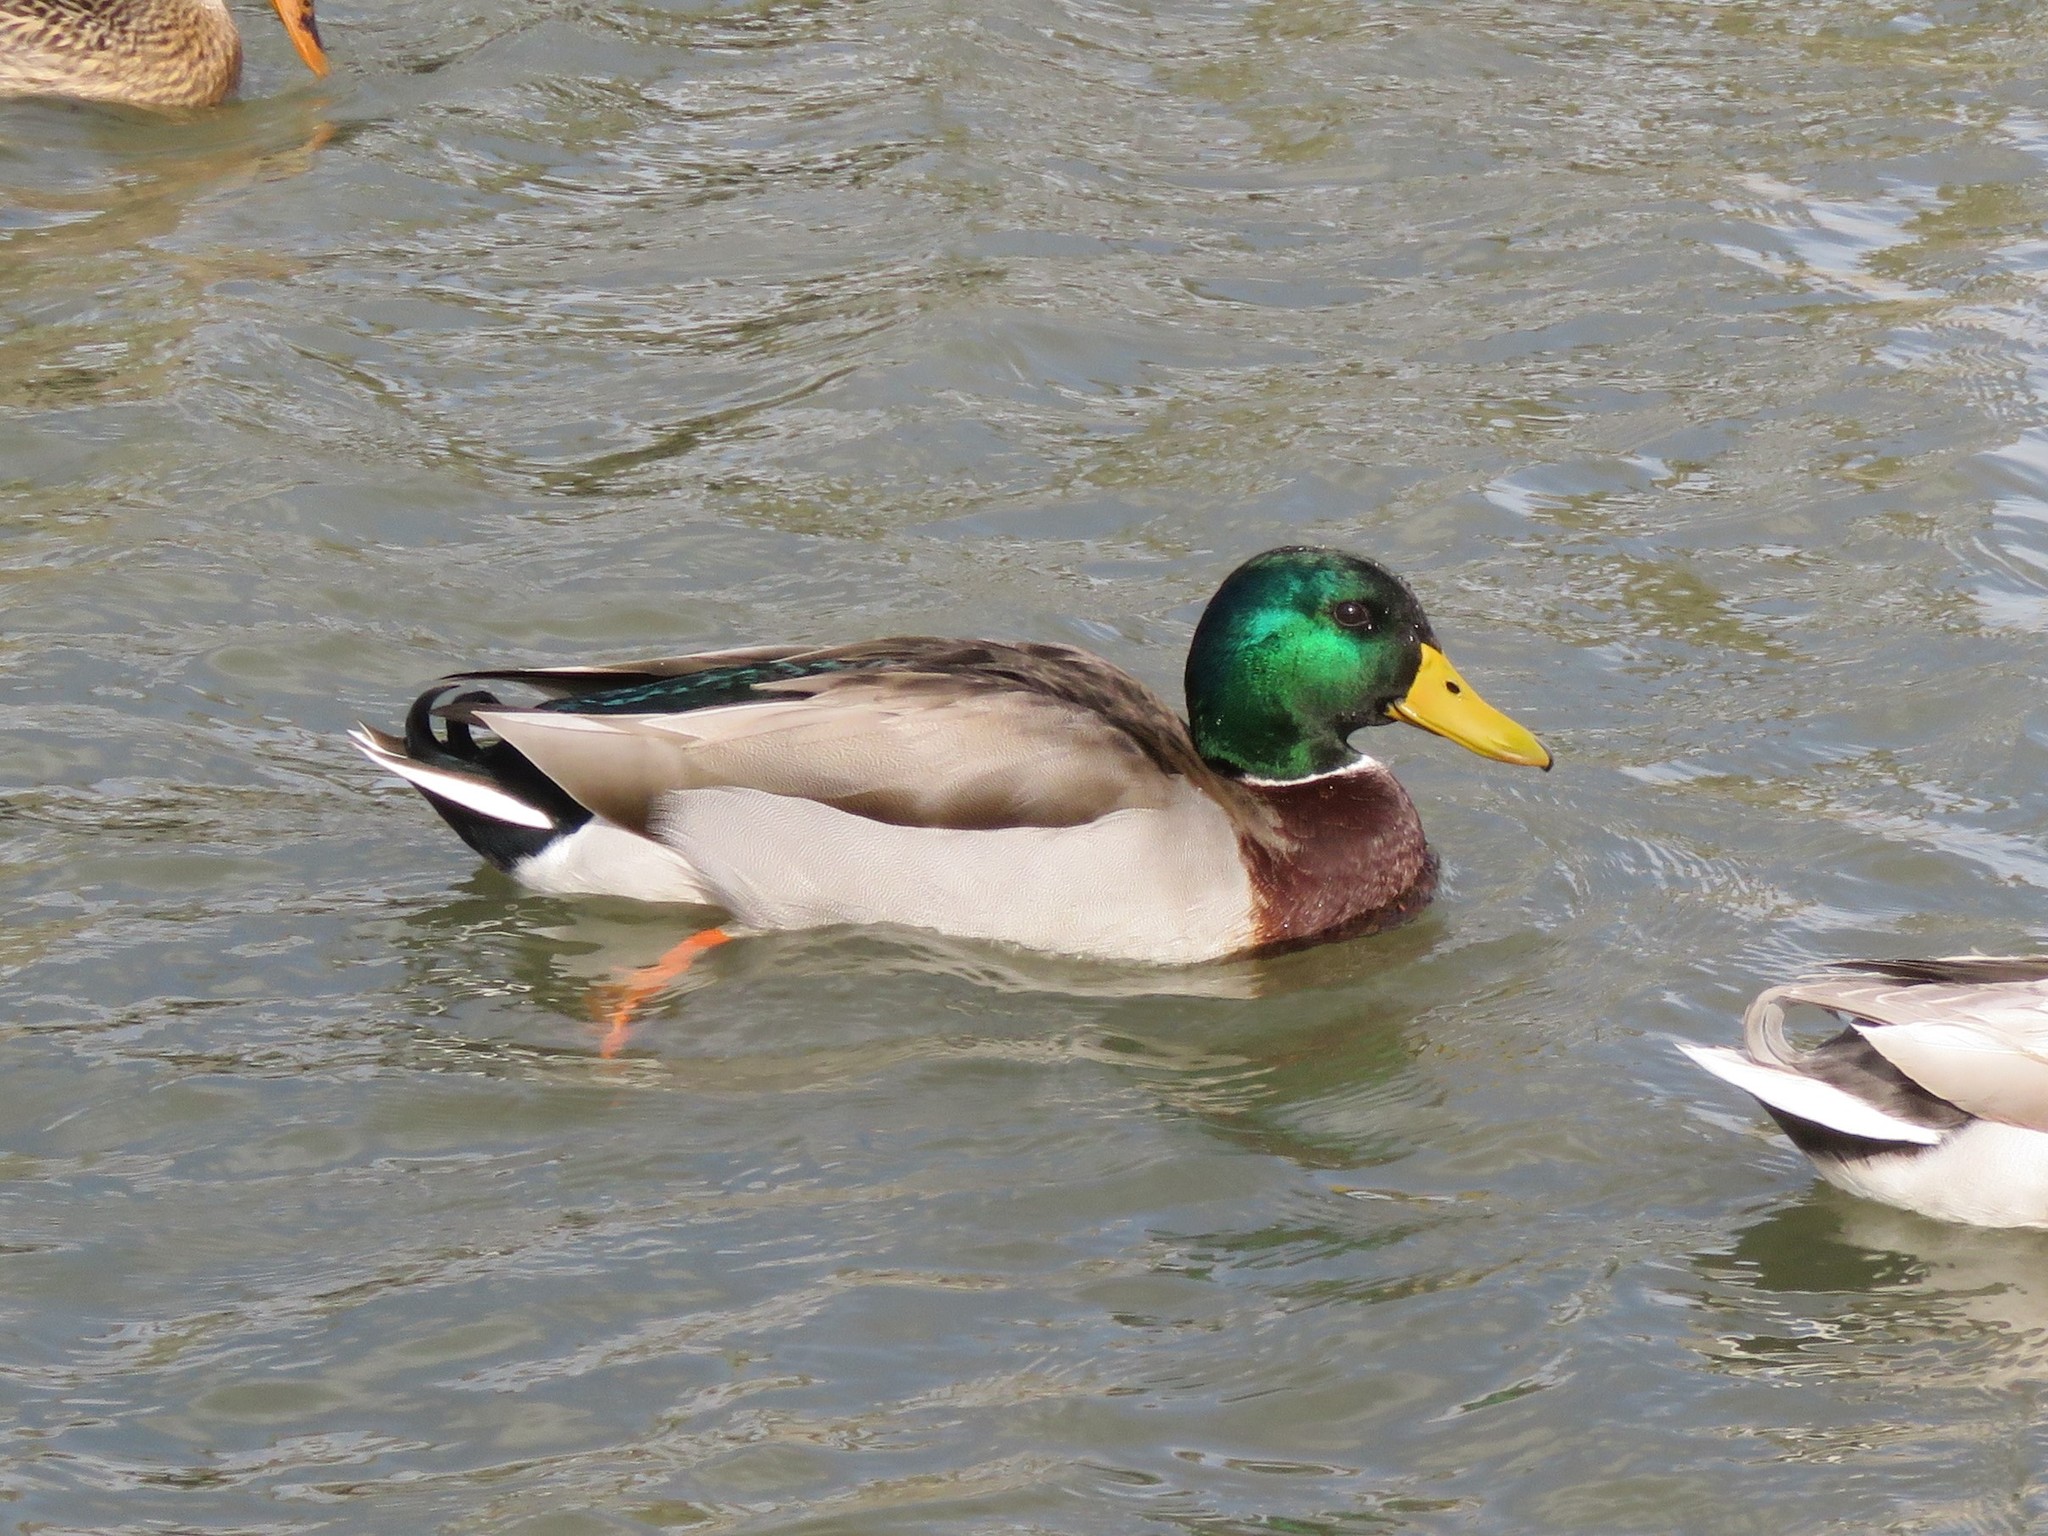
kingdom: Animalia
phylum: Chordata
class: Aves
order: Anseriformes
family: Anatidae
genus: Anas
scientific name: Anas platyrhynchos
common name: Mallard
